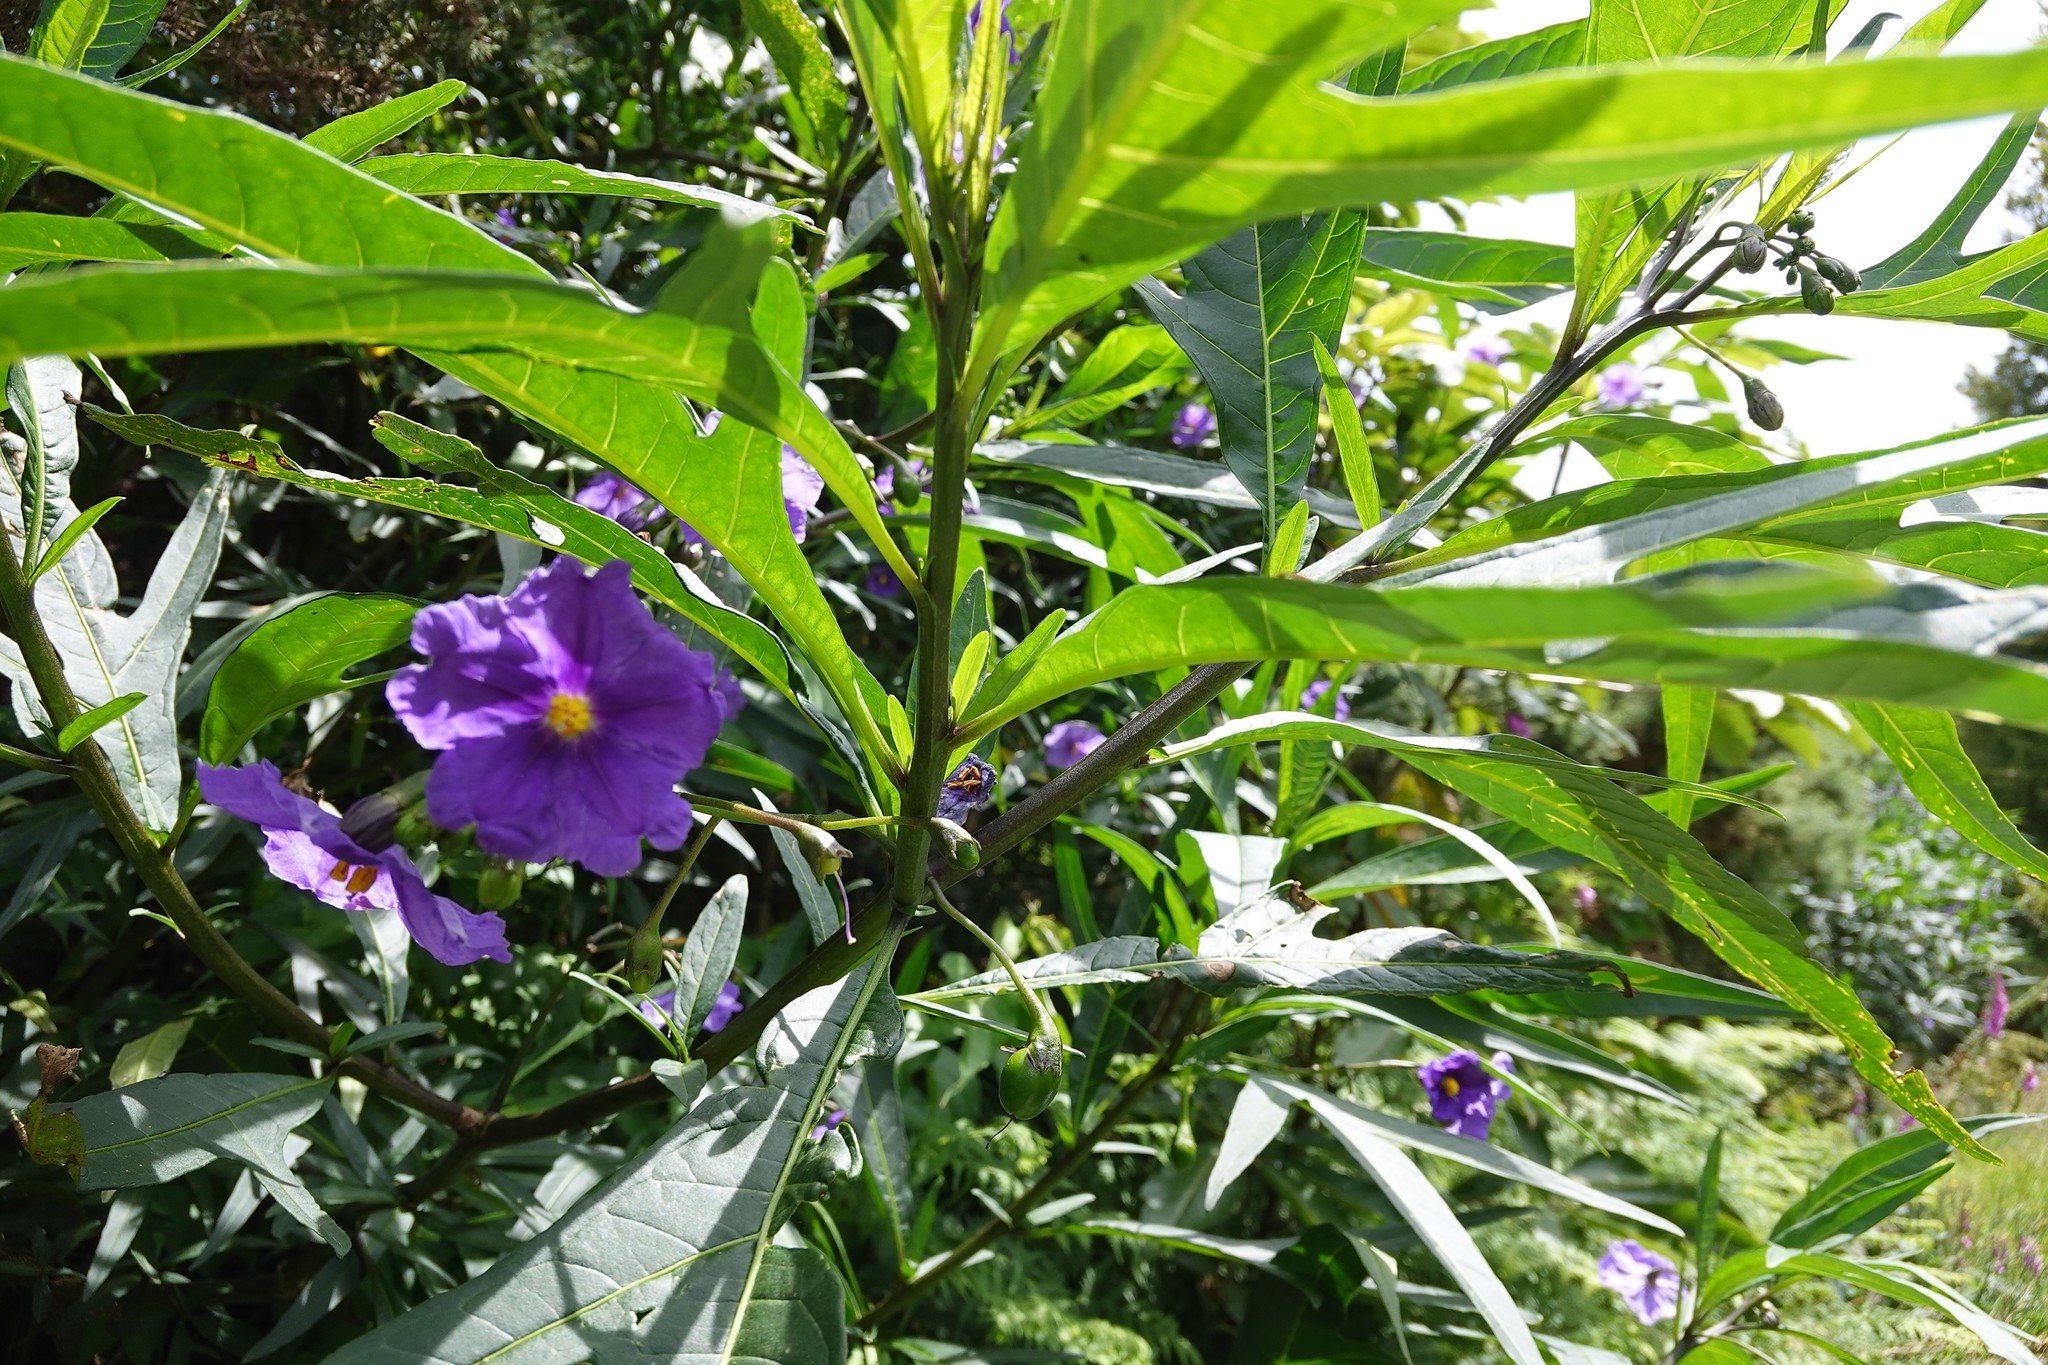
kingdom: Plantae
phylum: Tracheophyta
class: Magnoliopsida
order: Solanales
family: Solanaceae
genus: Solanum
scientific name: Solanum laciniatum
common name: Kangaroo-apple
